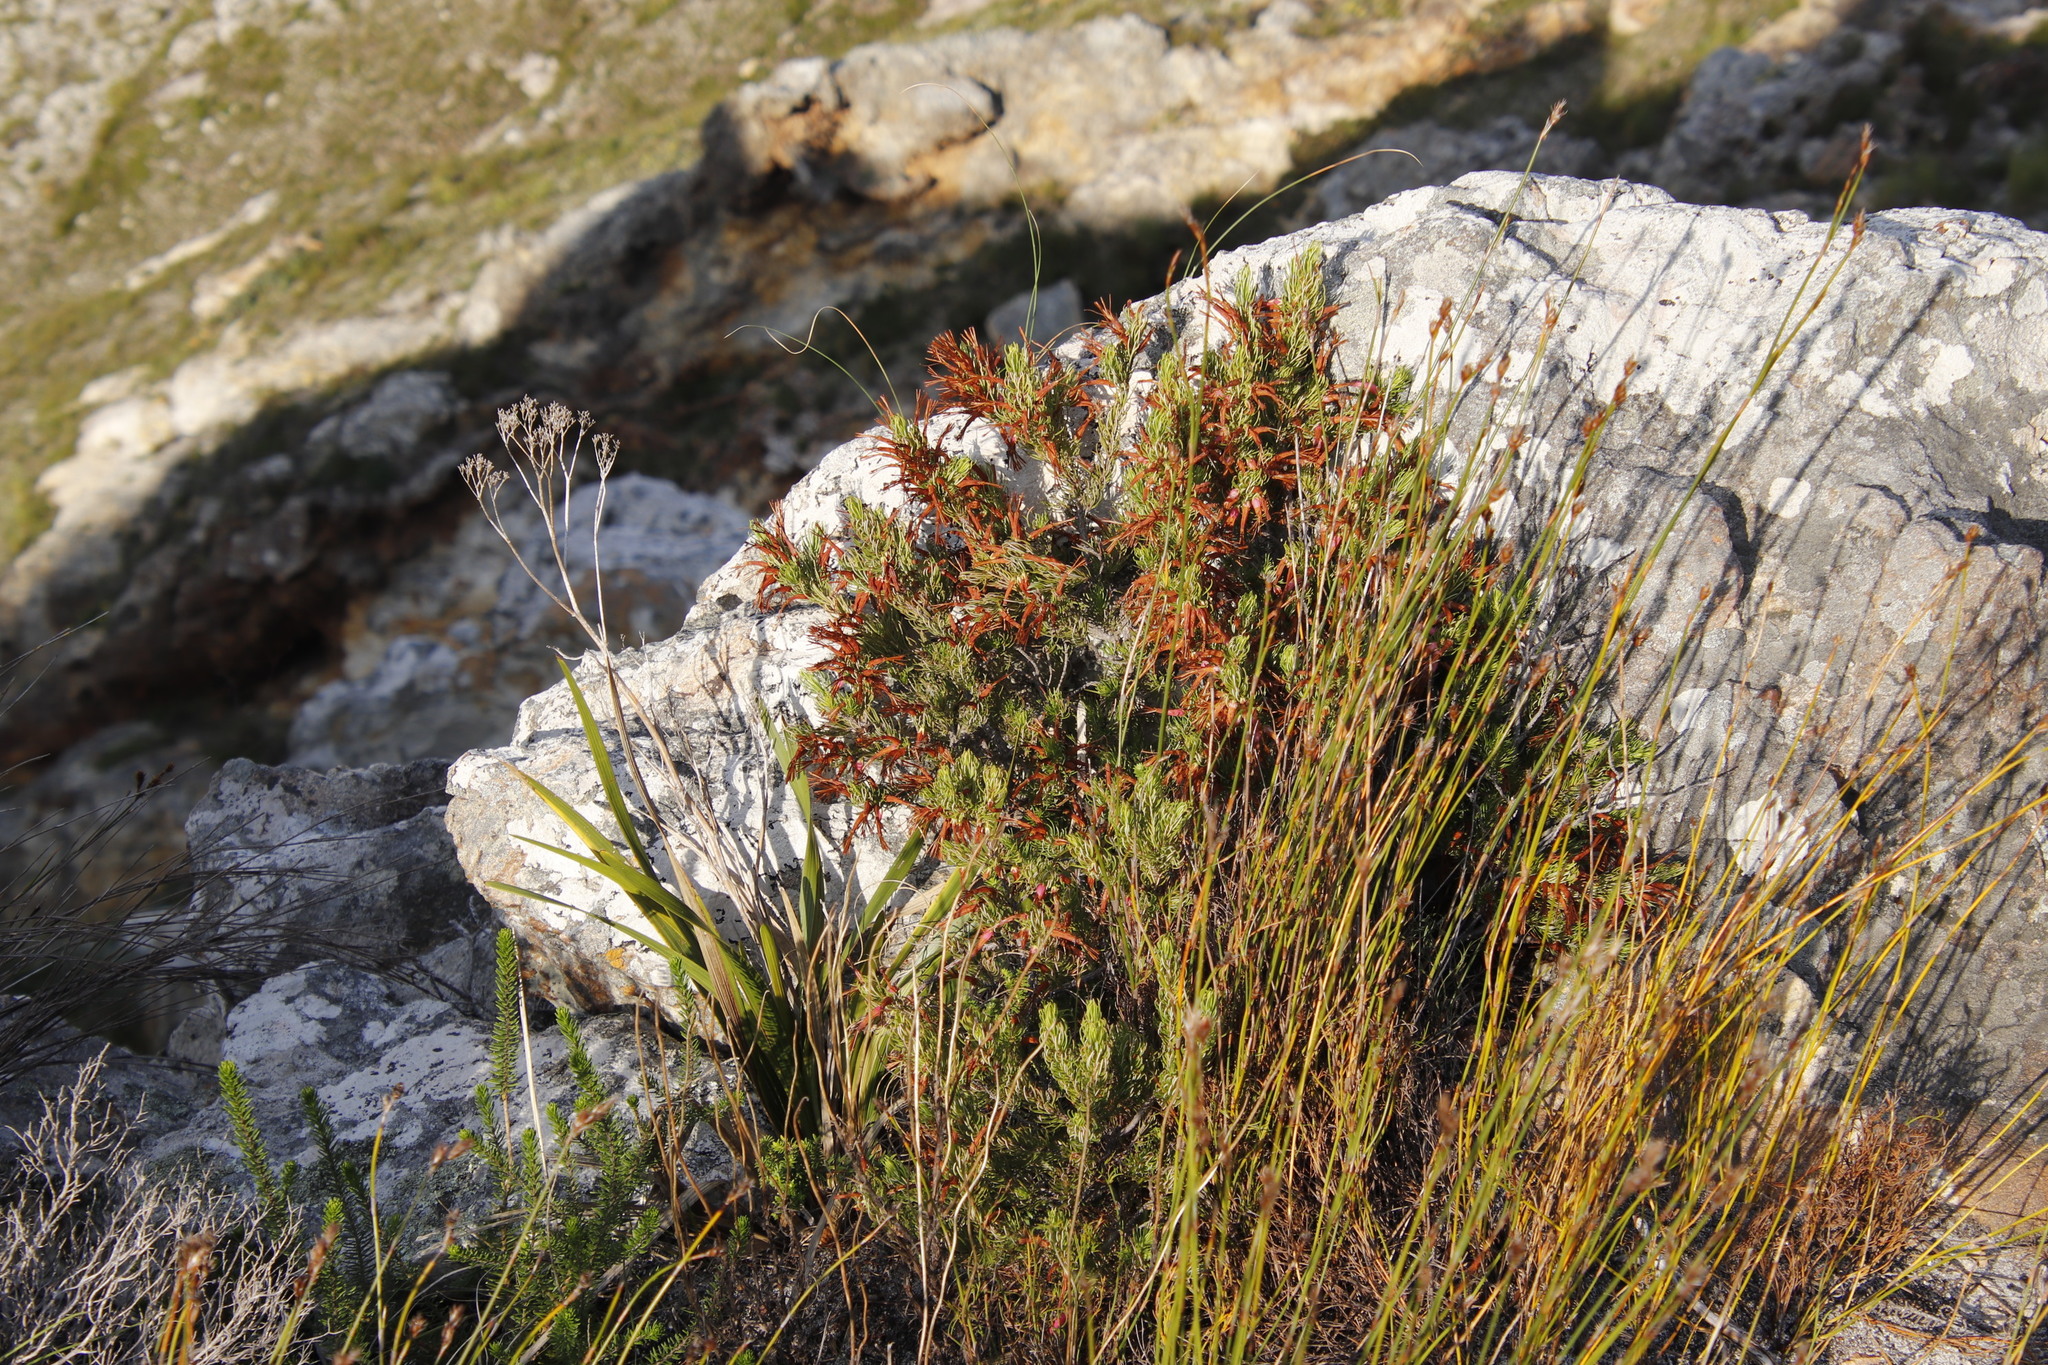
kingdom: Plantae
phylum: Tracheophyta
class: Magnoliopsida
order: Ericales
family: Ericaceae
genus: Erica
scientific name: Erica plukenetii
